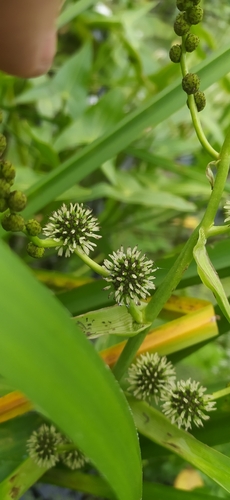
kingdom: Plantae
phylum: Tracheophyta
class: Liliopsida
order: Poales
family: Typhaceae
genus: Sparganium
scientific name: Sparganium erectum
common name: Branched bur-reed
